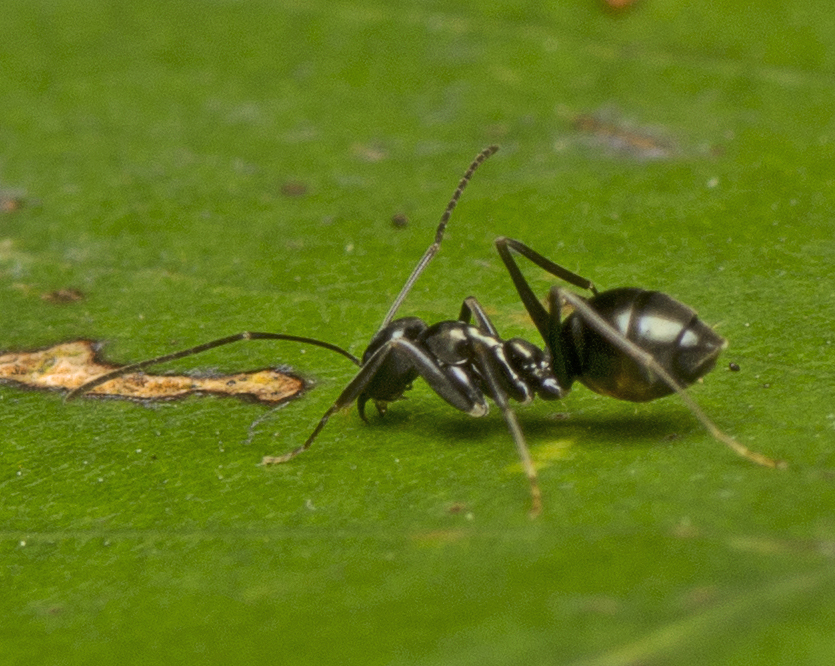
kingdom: Animalia
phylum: Arthropoda
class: Insecta
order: Hymenoptera
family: Formicidae
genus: Leptomyrmex
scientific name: Leptomyrmex burwelli
